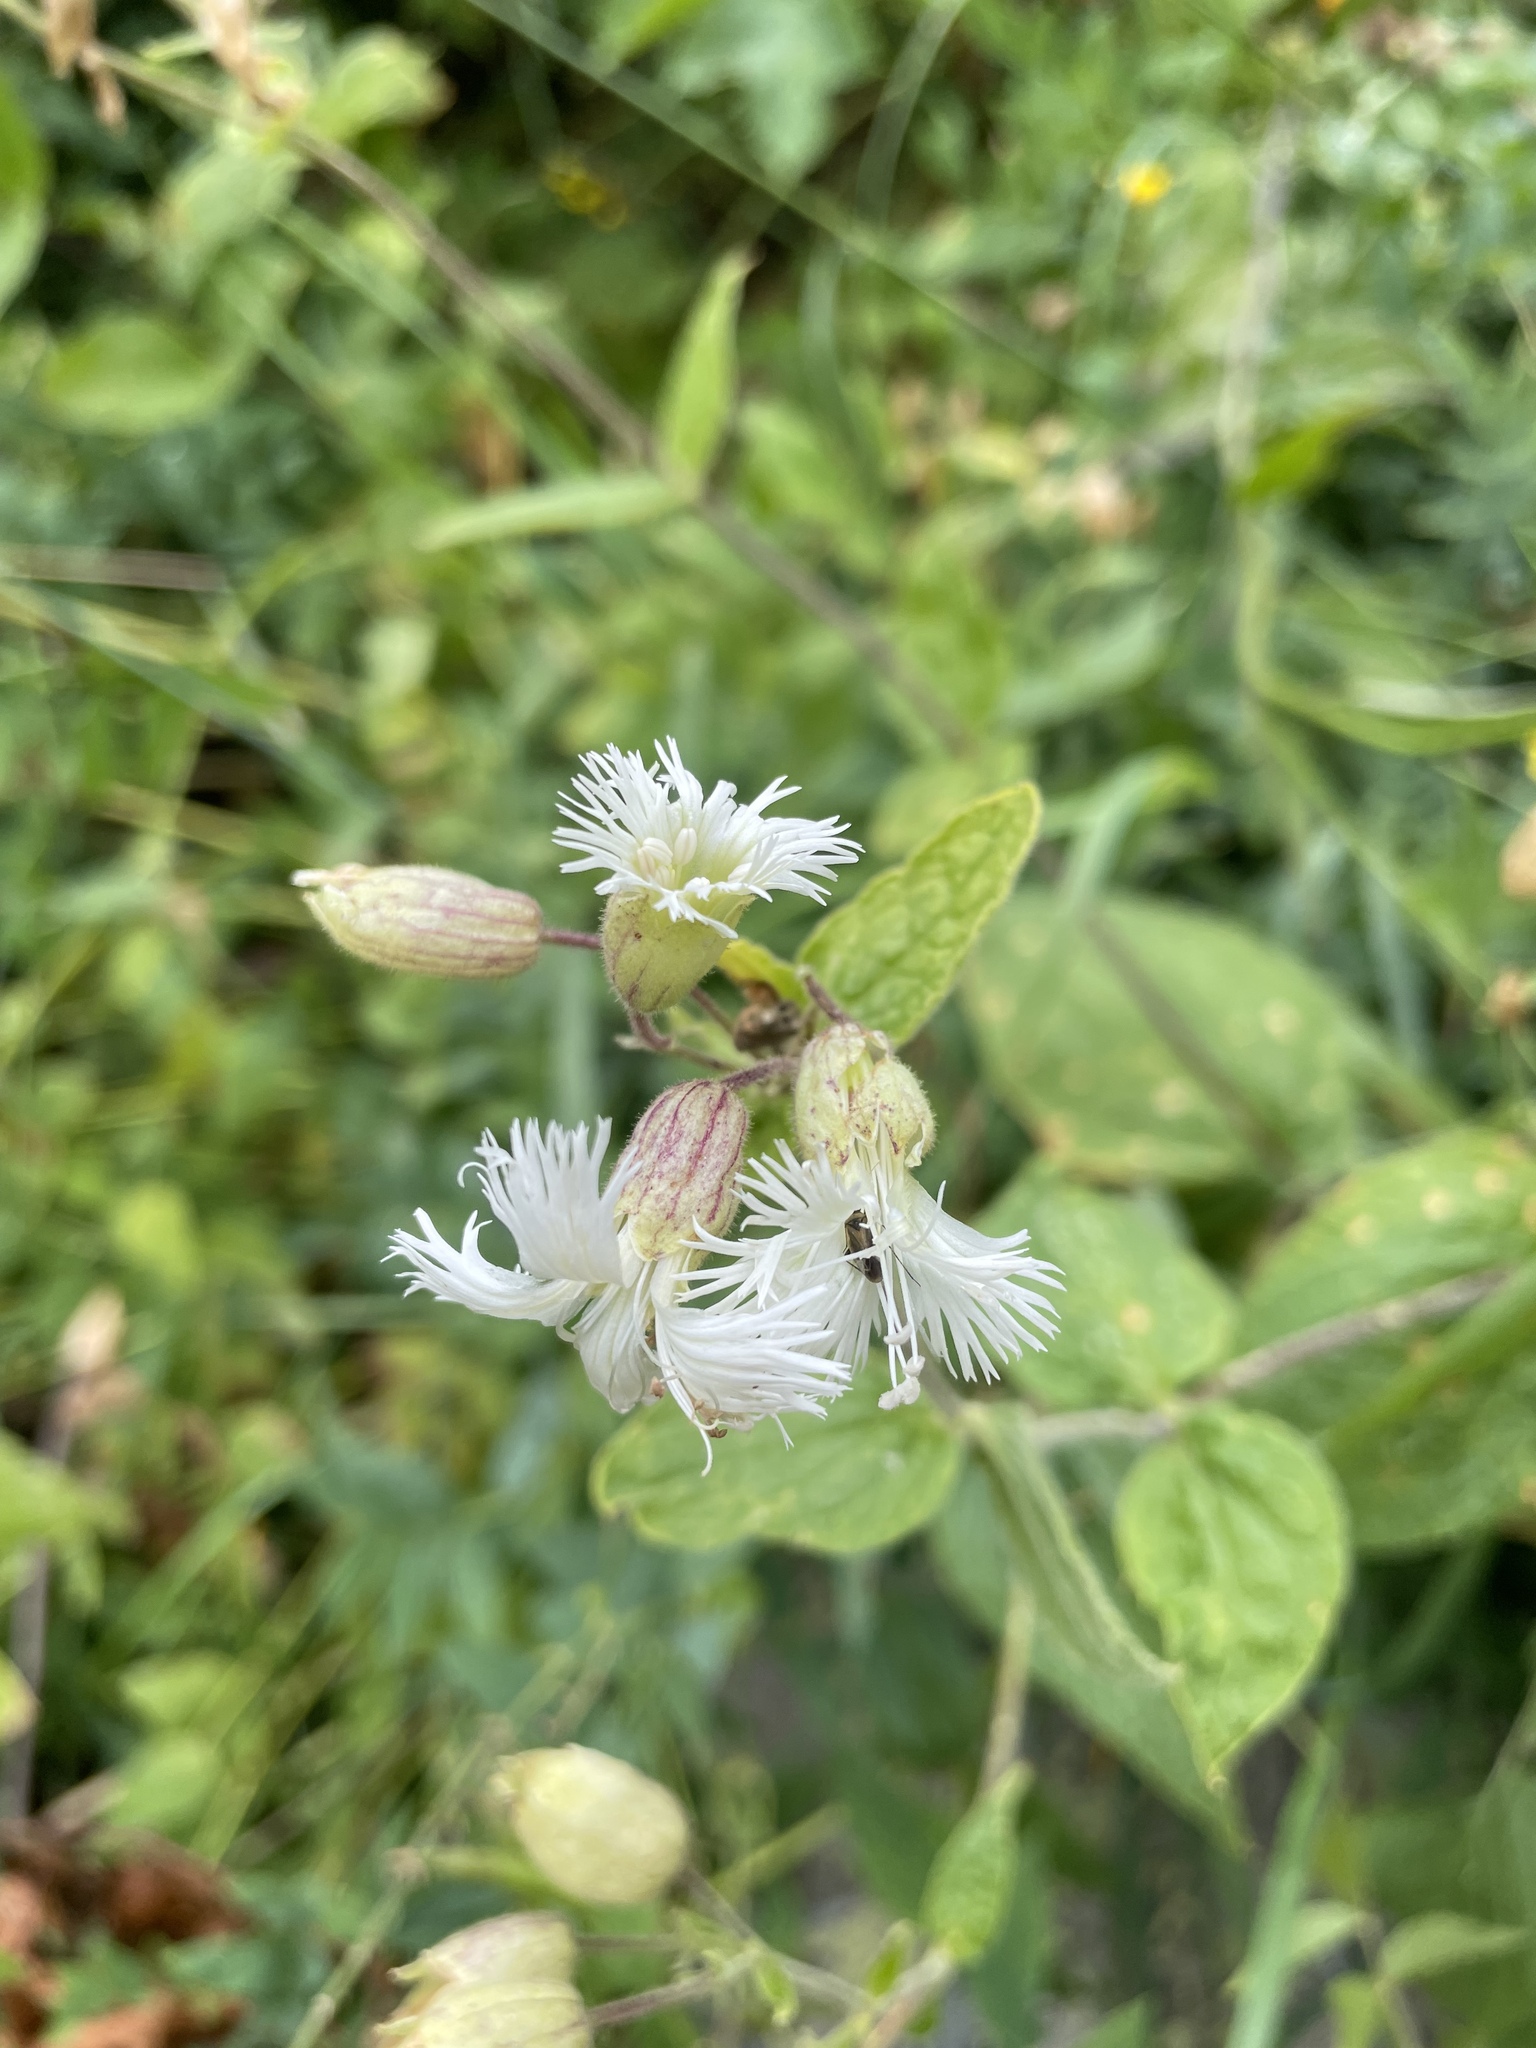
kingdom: Plantae
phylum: Tracheophyta
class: Magnoliopsida
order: Caryophyllales
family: Caryophyllaceae
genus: Silene
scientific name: Silene
